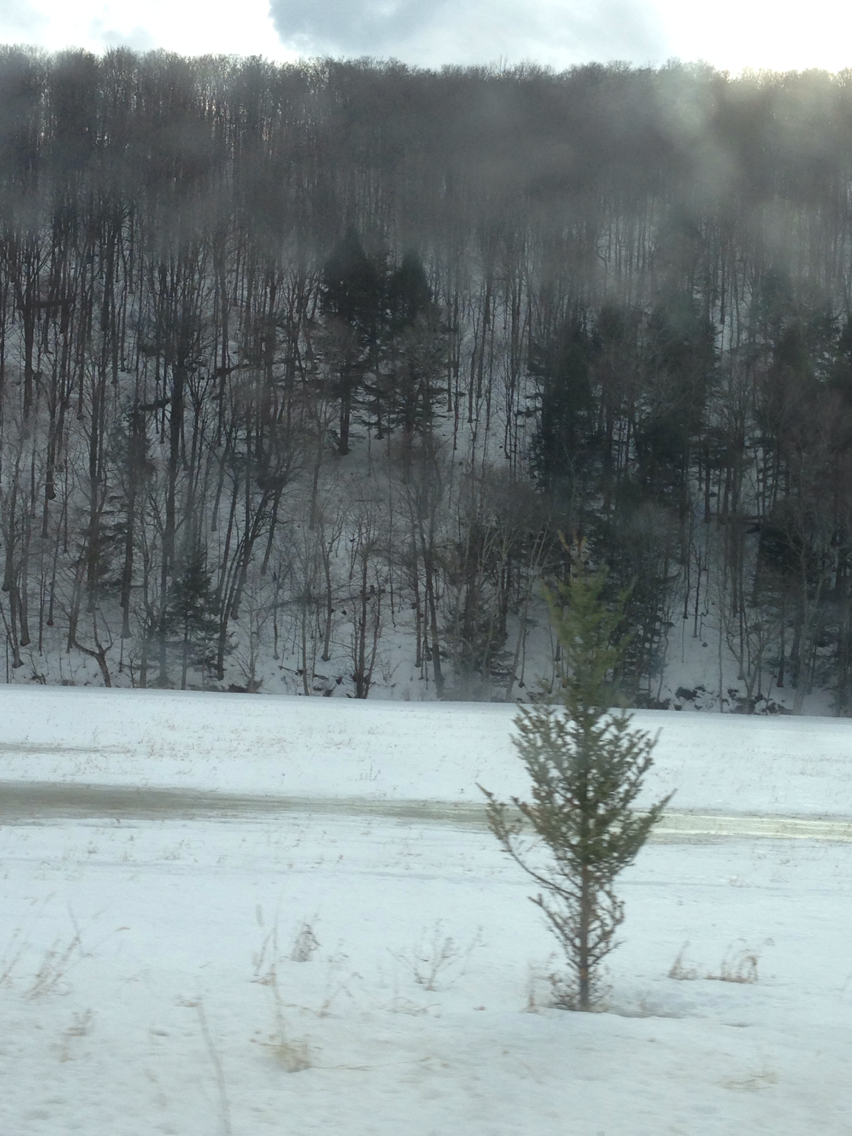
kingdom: Plantae
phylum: Tracheophyta
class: Pinopsida
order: Pinales
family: Pinaceae
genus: Tsuga
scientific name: Tsuga canadensis
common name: Eastern hemlock
